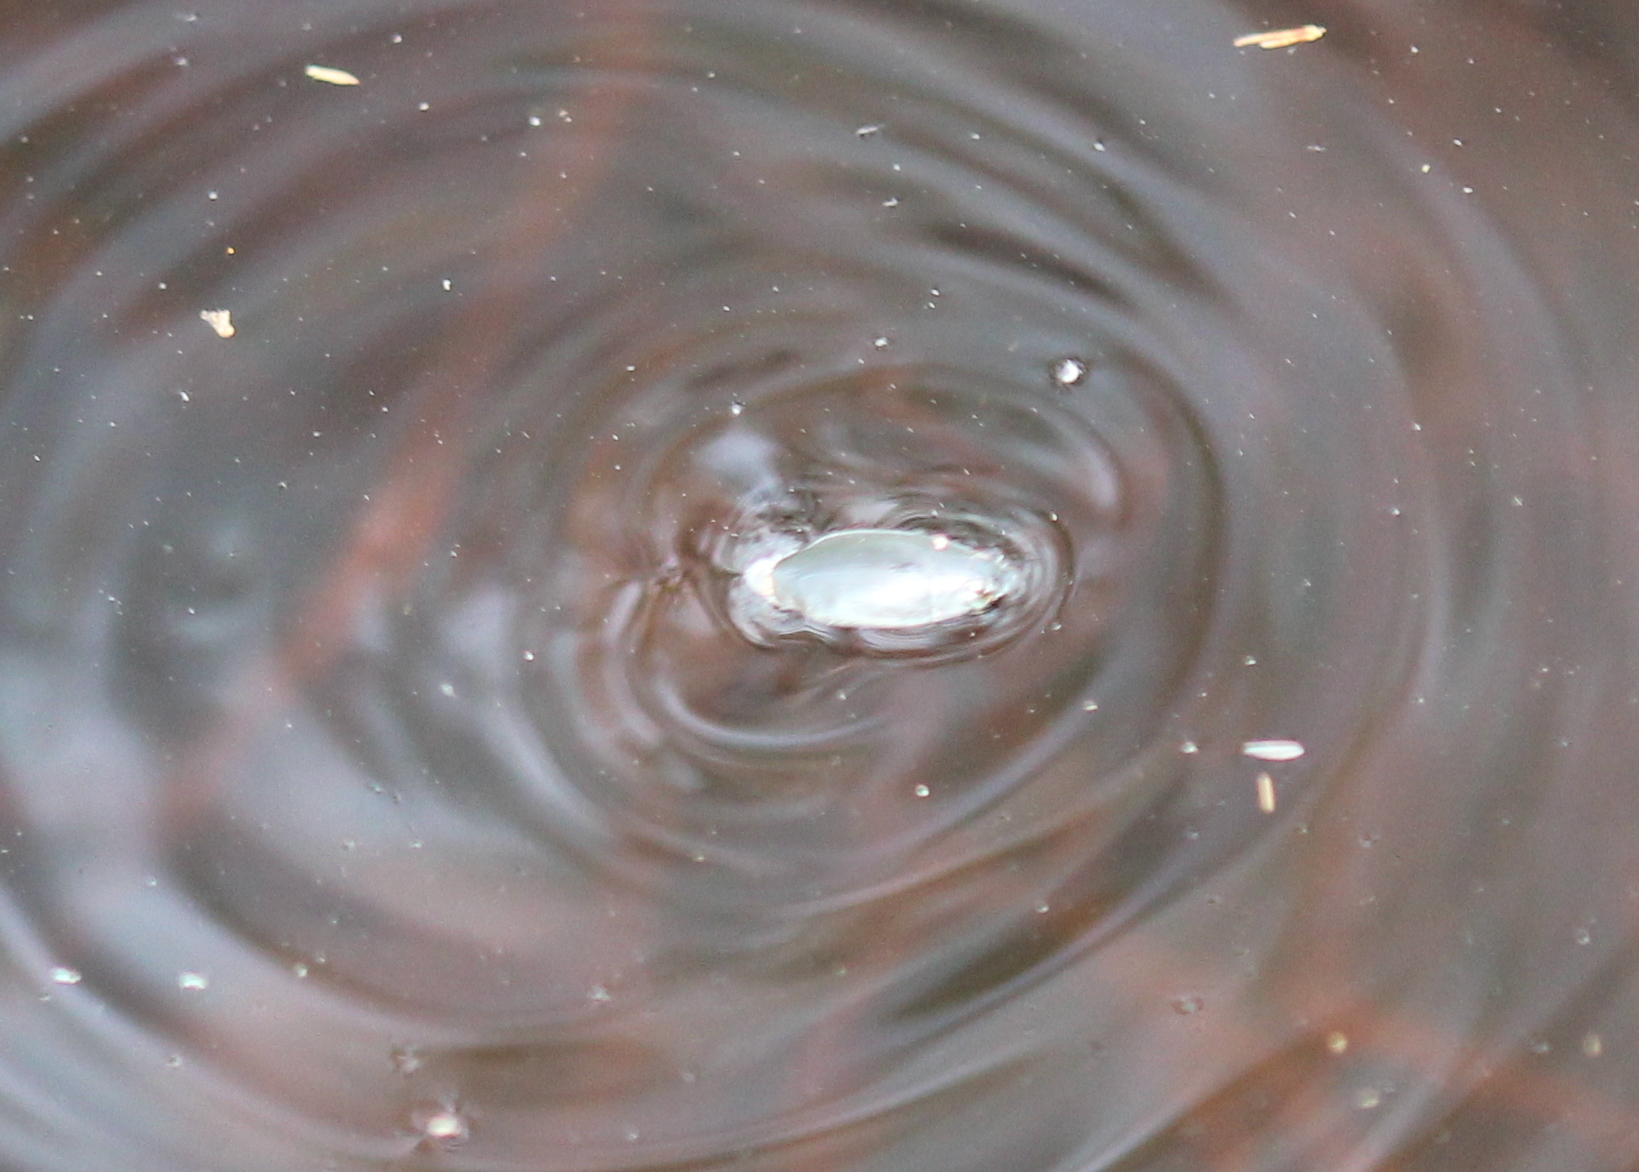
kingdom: Animalia
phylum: Arthropoda
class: Insecta
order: Coleoptera
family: Gyrinidae
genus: Dineutus
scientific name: Dineutus
